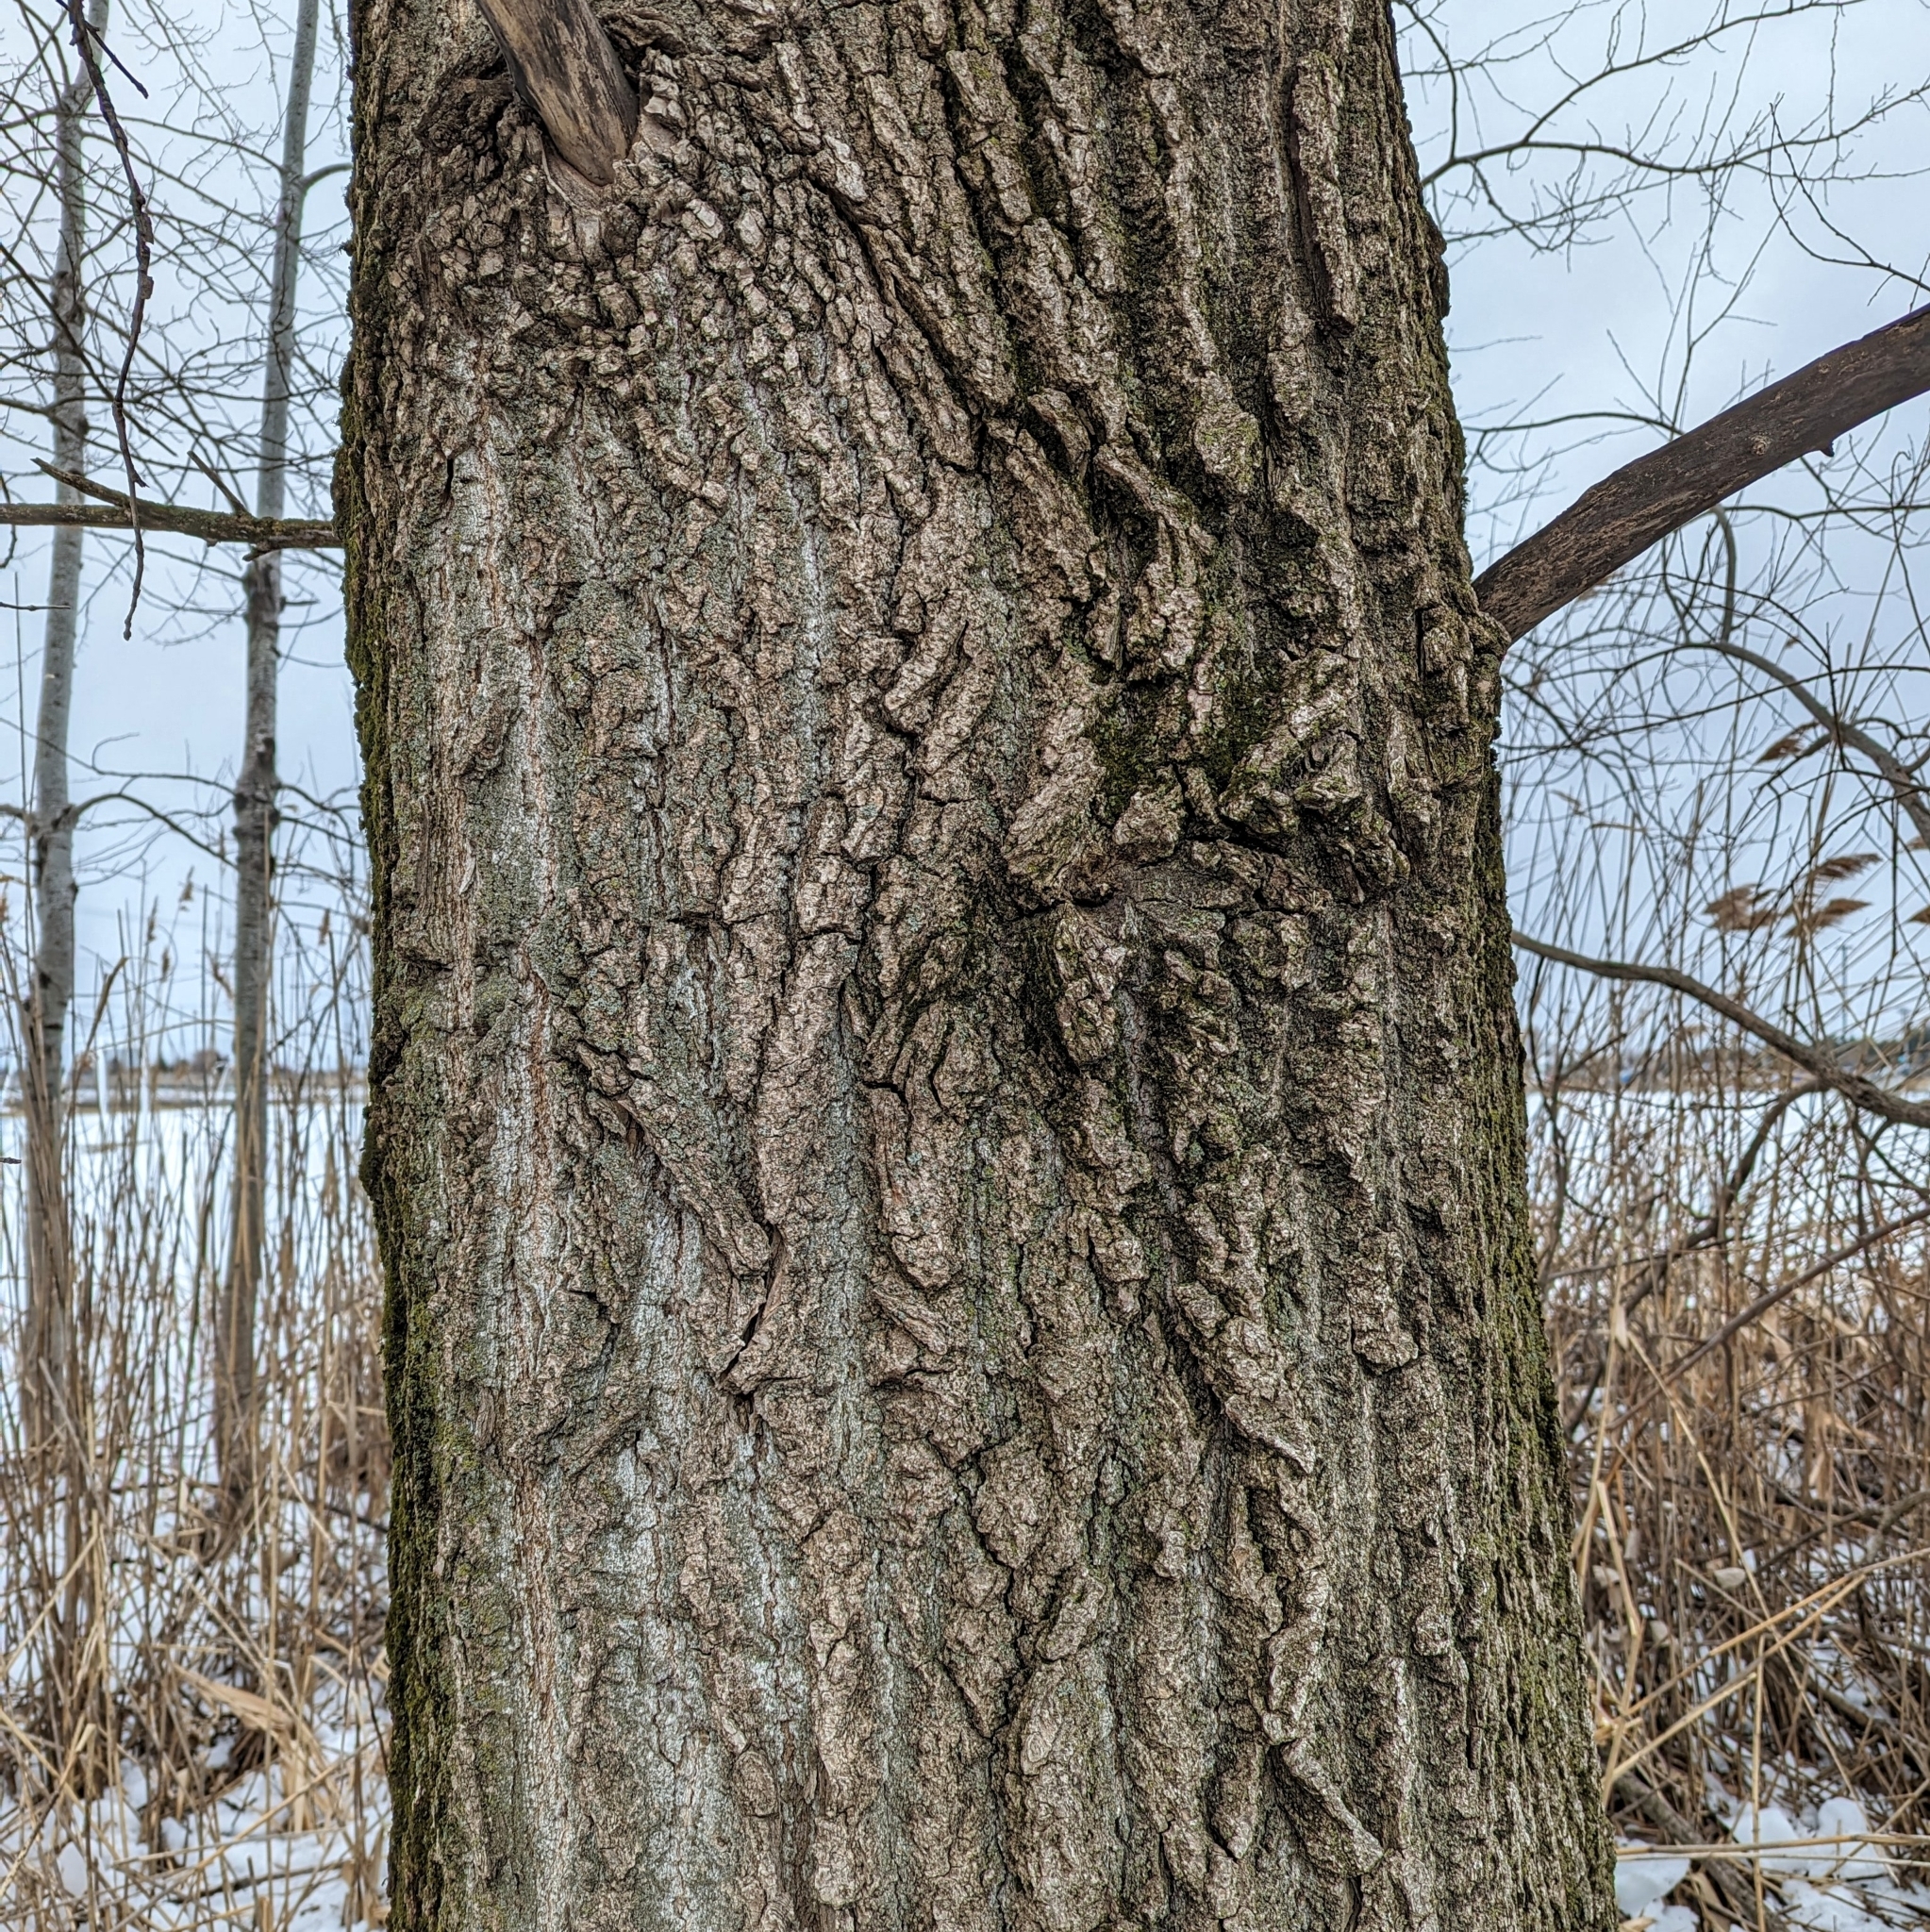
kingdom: Plantae
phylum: Tracheophyta
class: Magnoliopsida
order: Malpighiales
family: Salicaceae
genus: Populus
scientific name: Populus deltoides
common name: Eastern cottonwood
